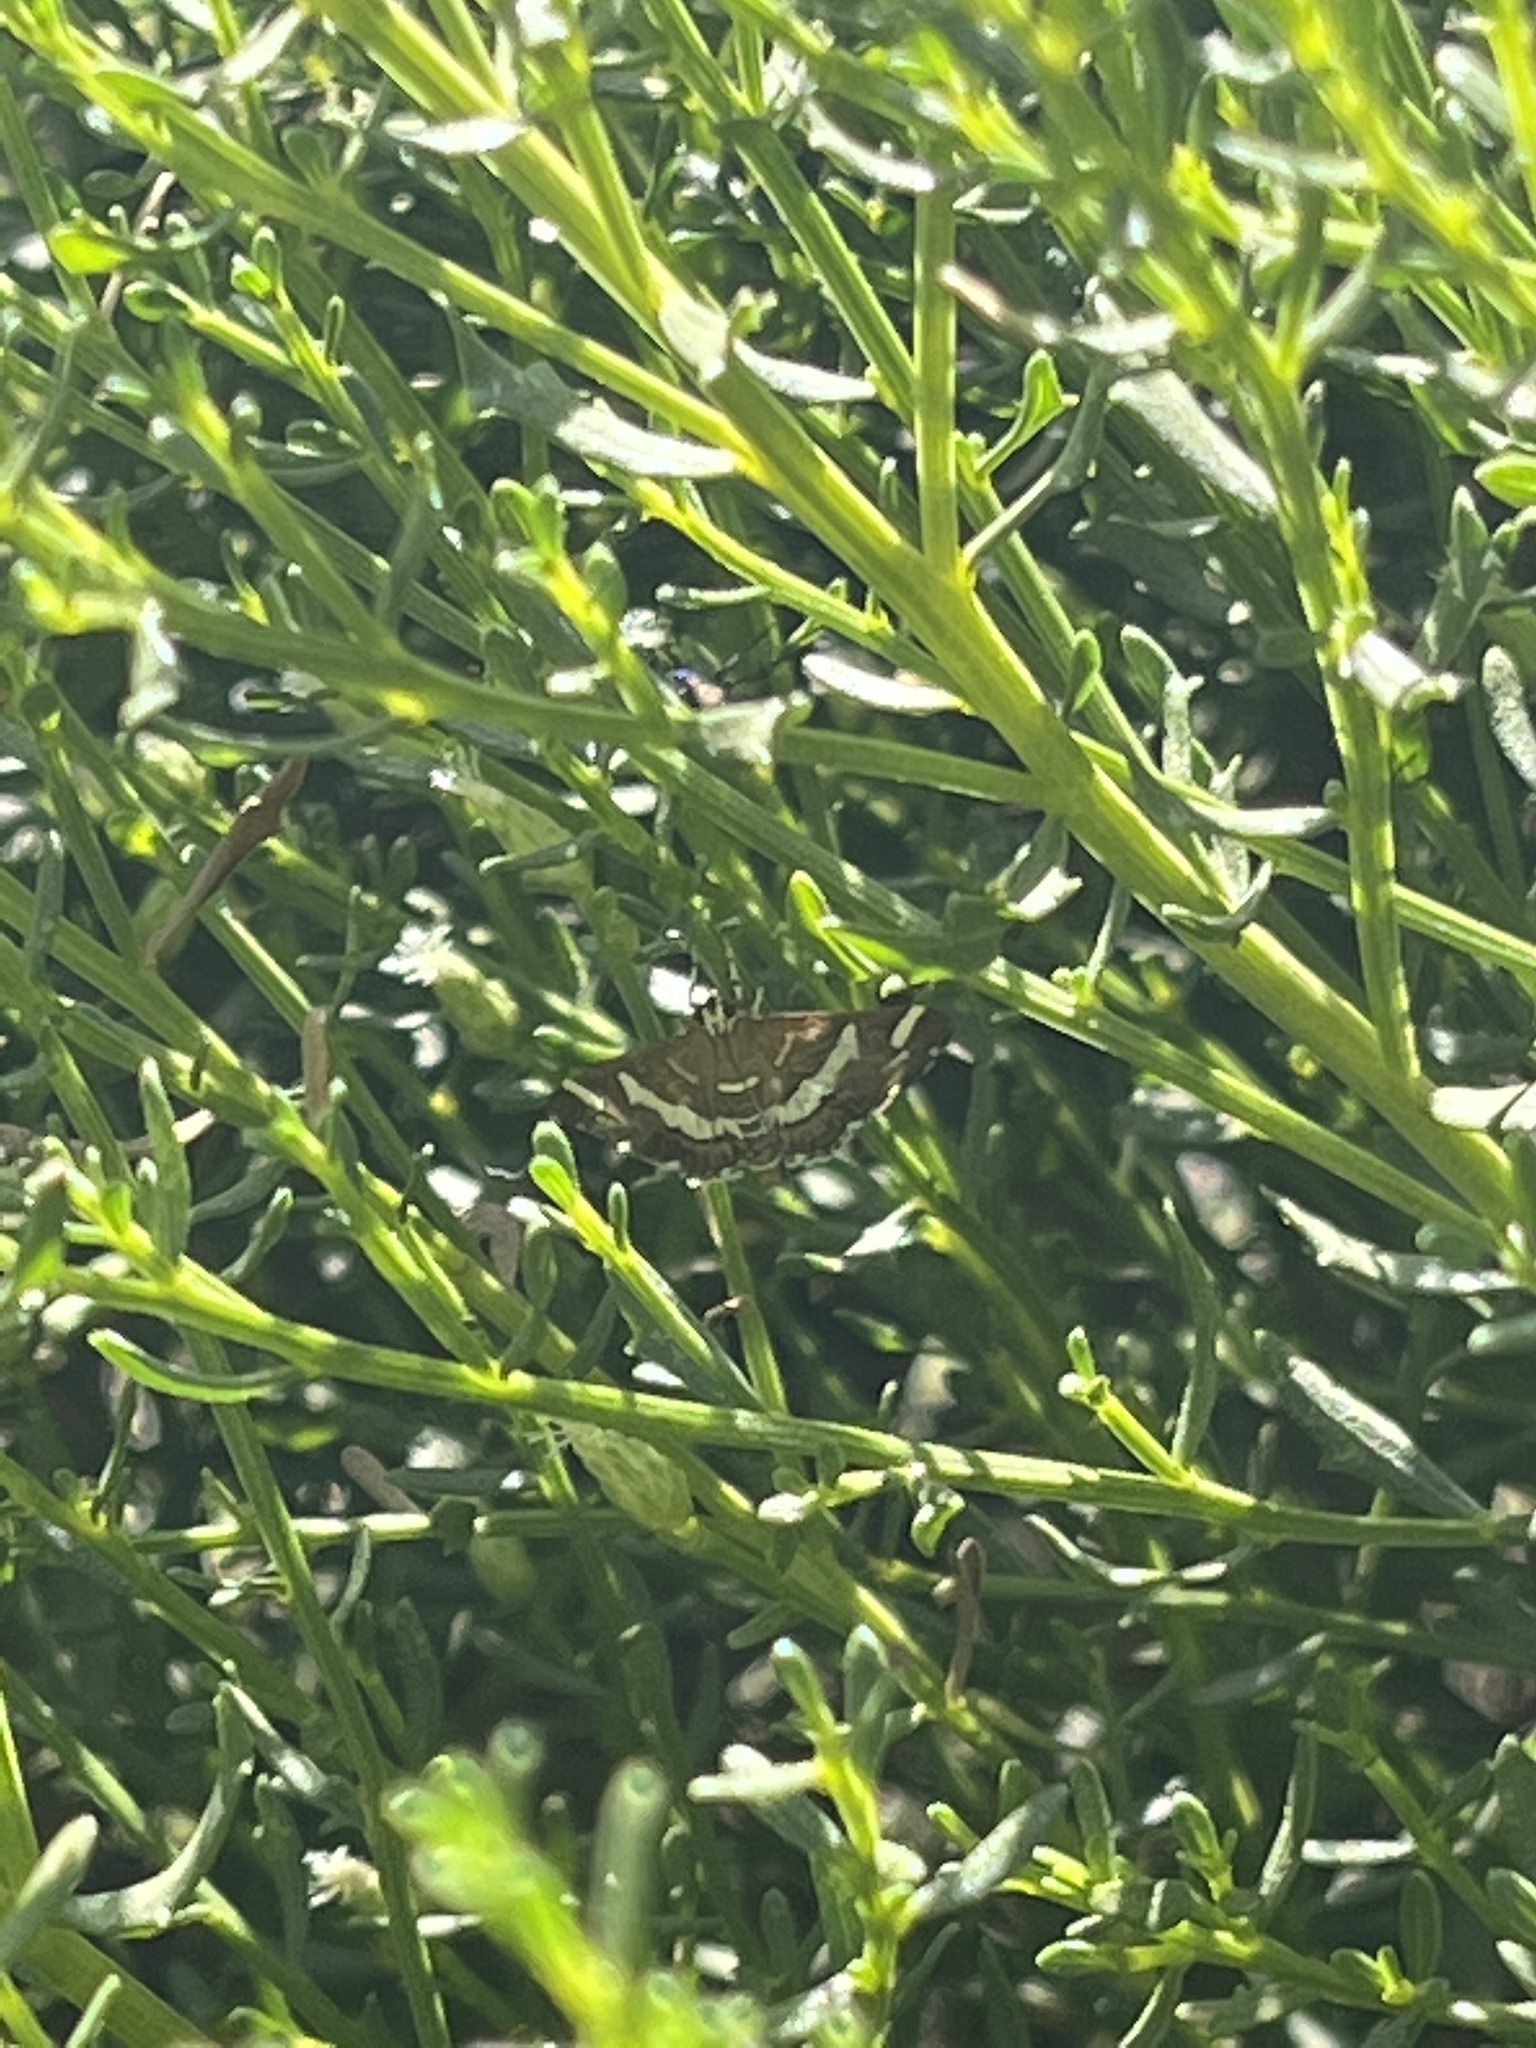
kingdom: Animalia
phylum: Arthropoda
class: Insecta
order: Lepidoptera
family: Crambidae
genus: Spoladea
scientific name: Spoladea recurvalis
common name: Beet webworm moth
